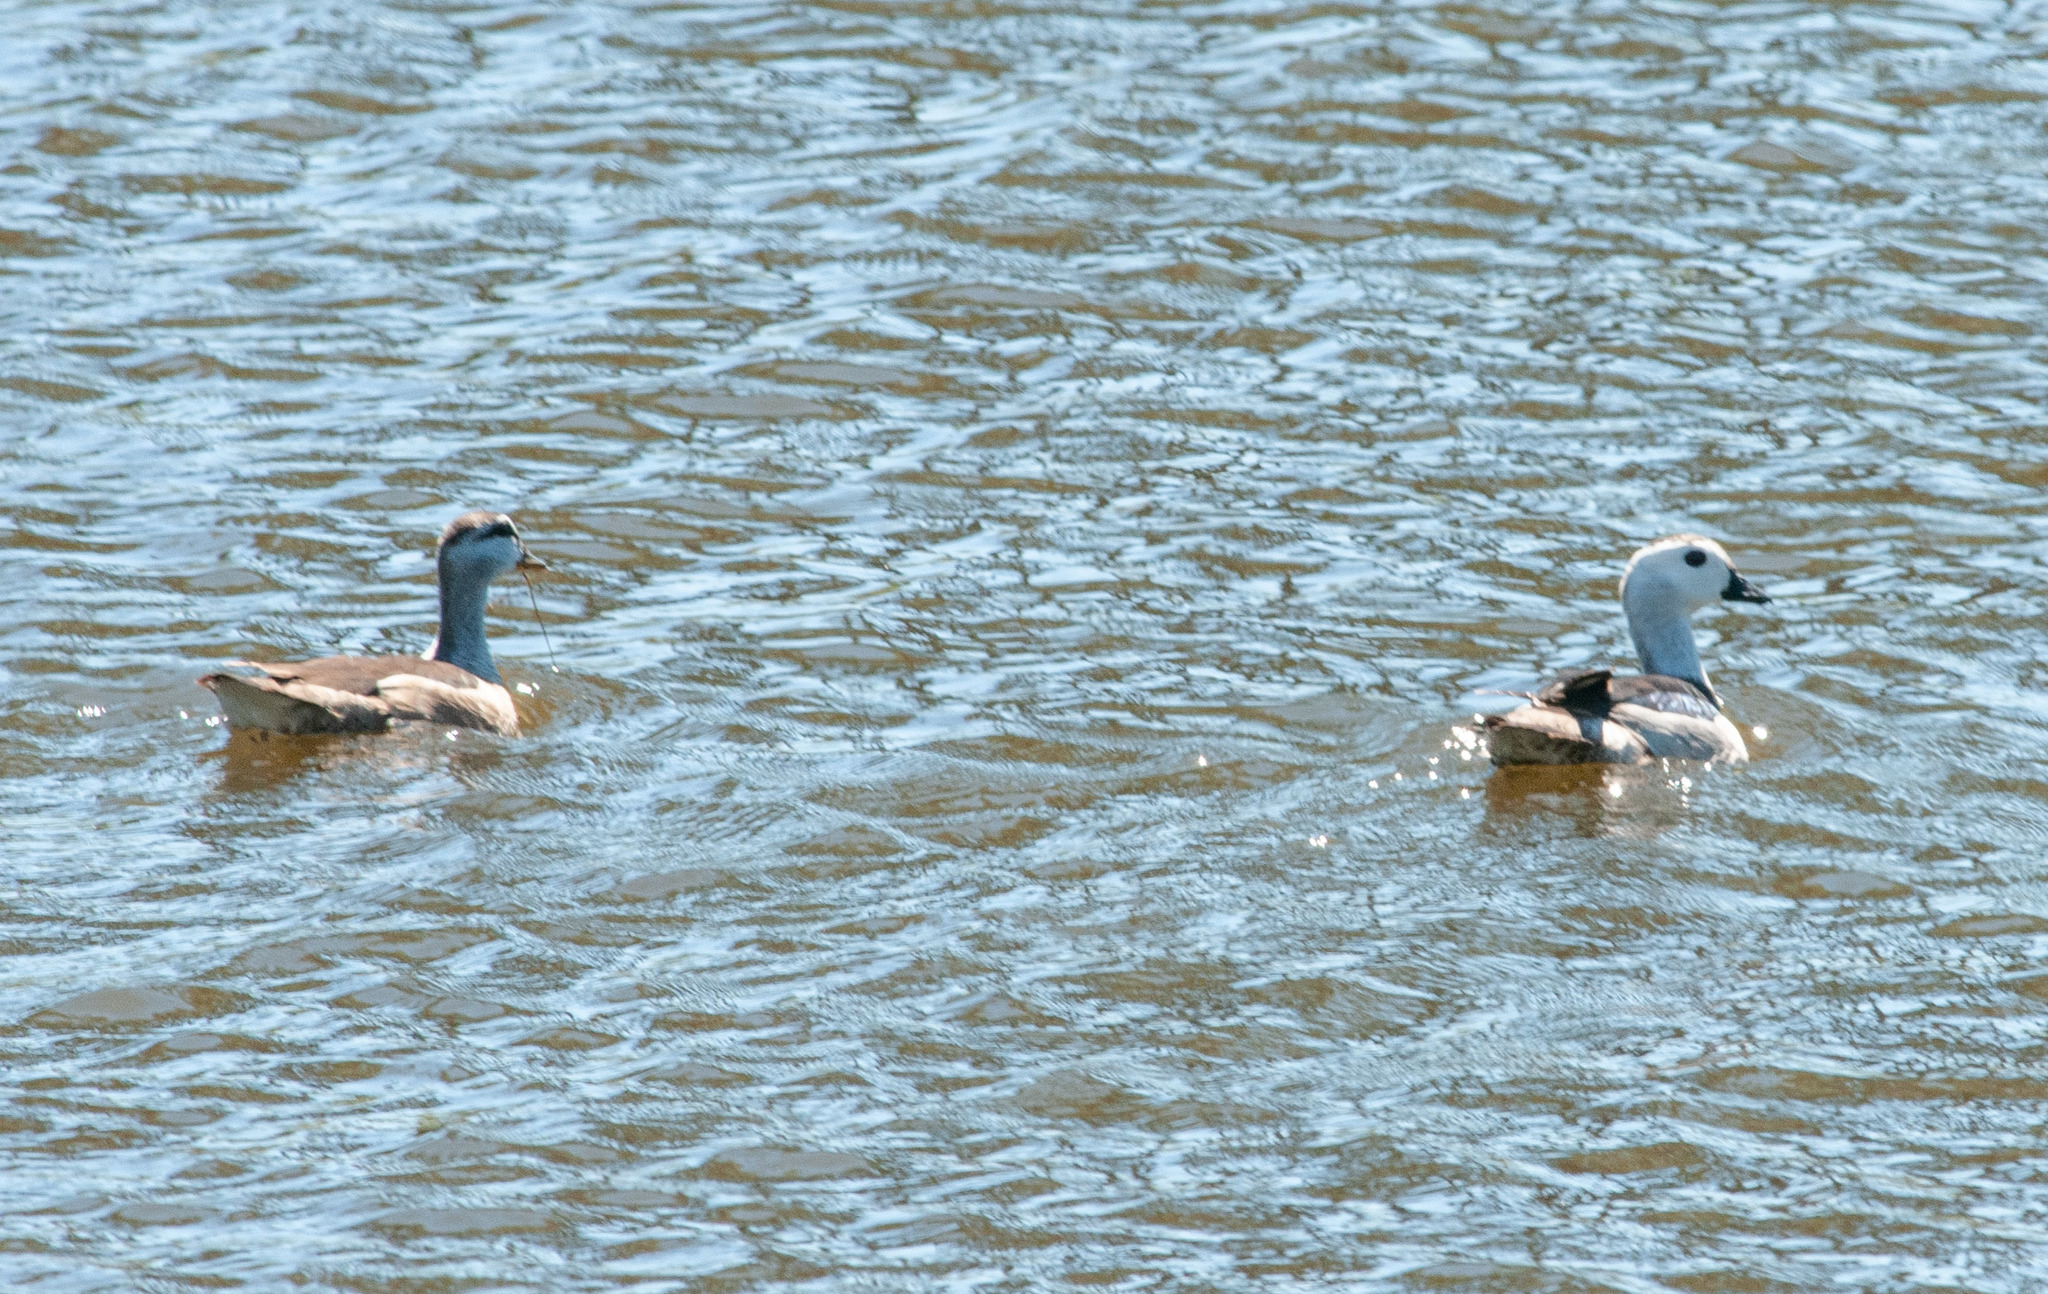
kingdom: Animalia
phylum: Chordata
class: Aves
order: Anseriformes
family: Anatidae
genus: Nettapus
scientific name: Nettapus coromandelianus
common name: Cotton pygmy-goose
